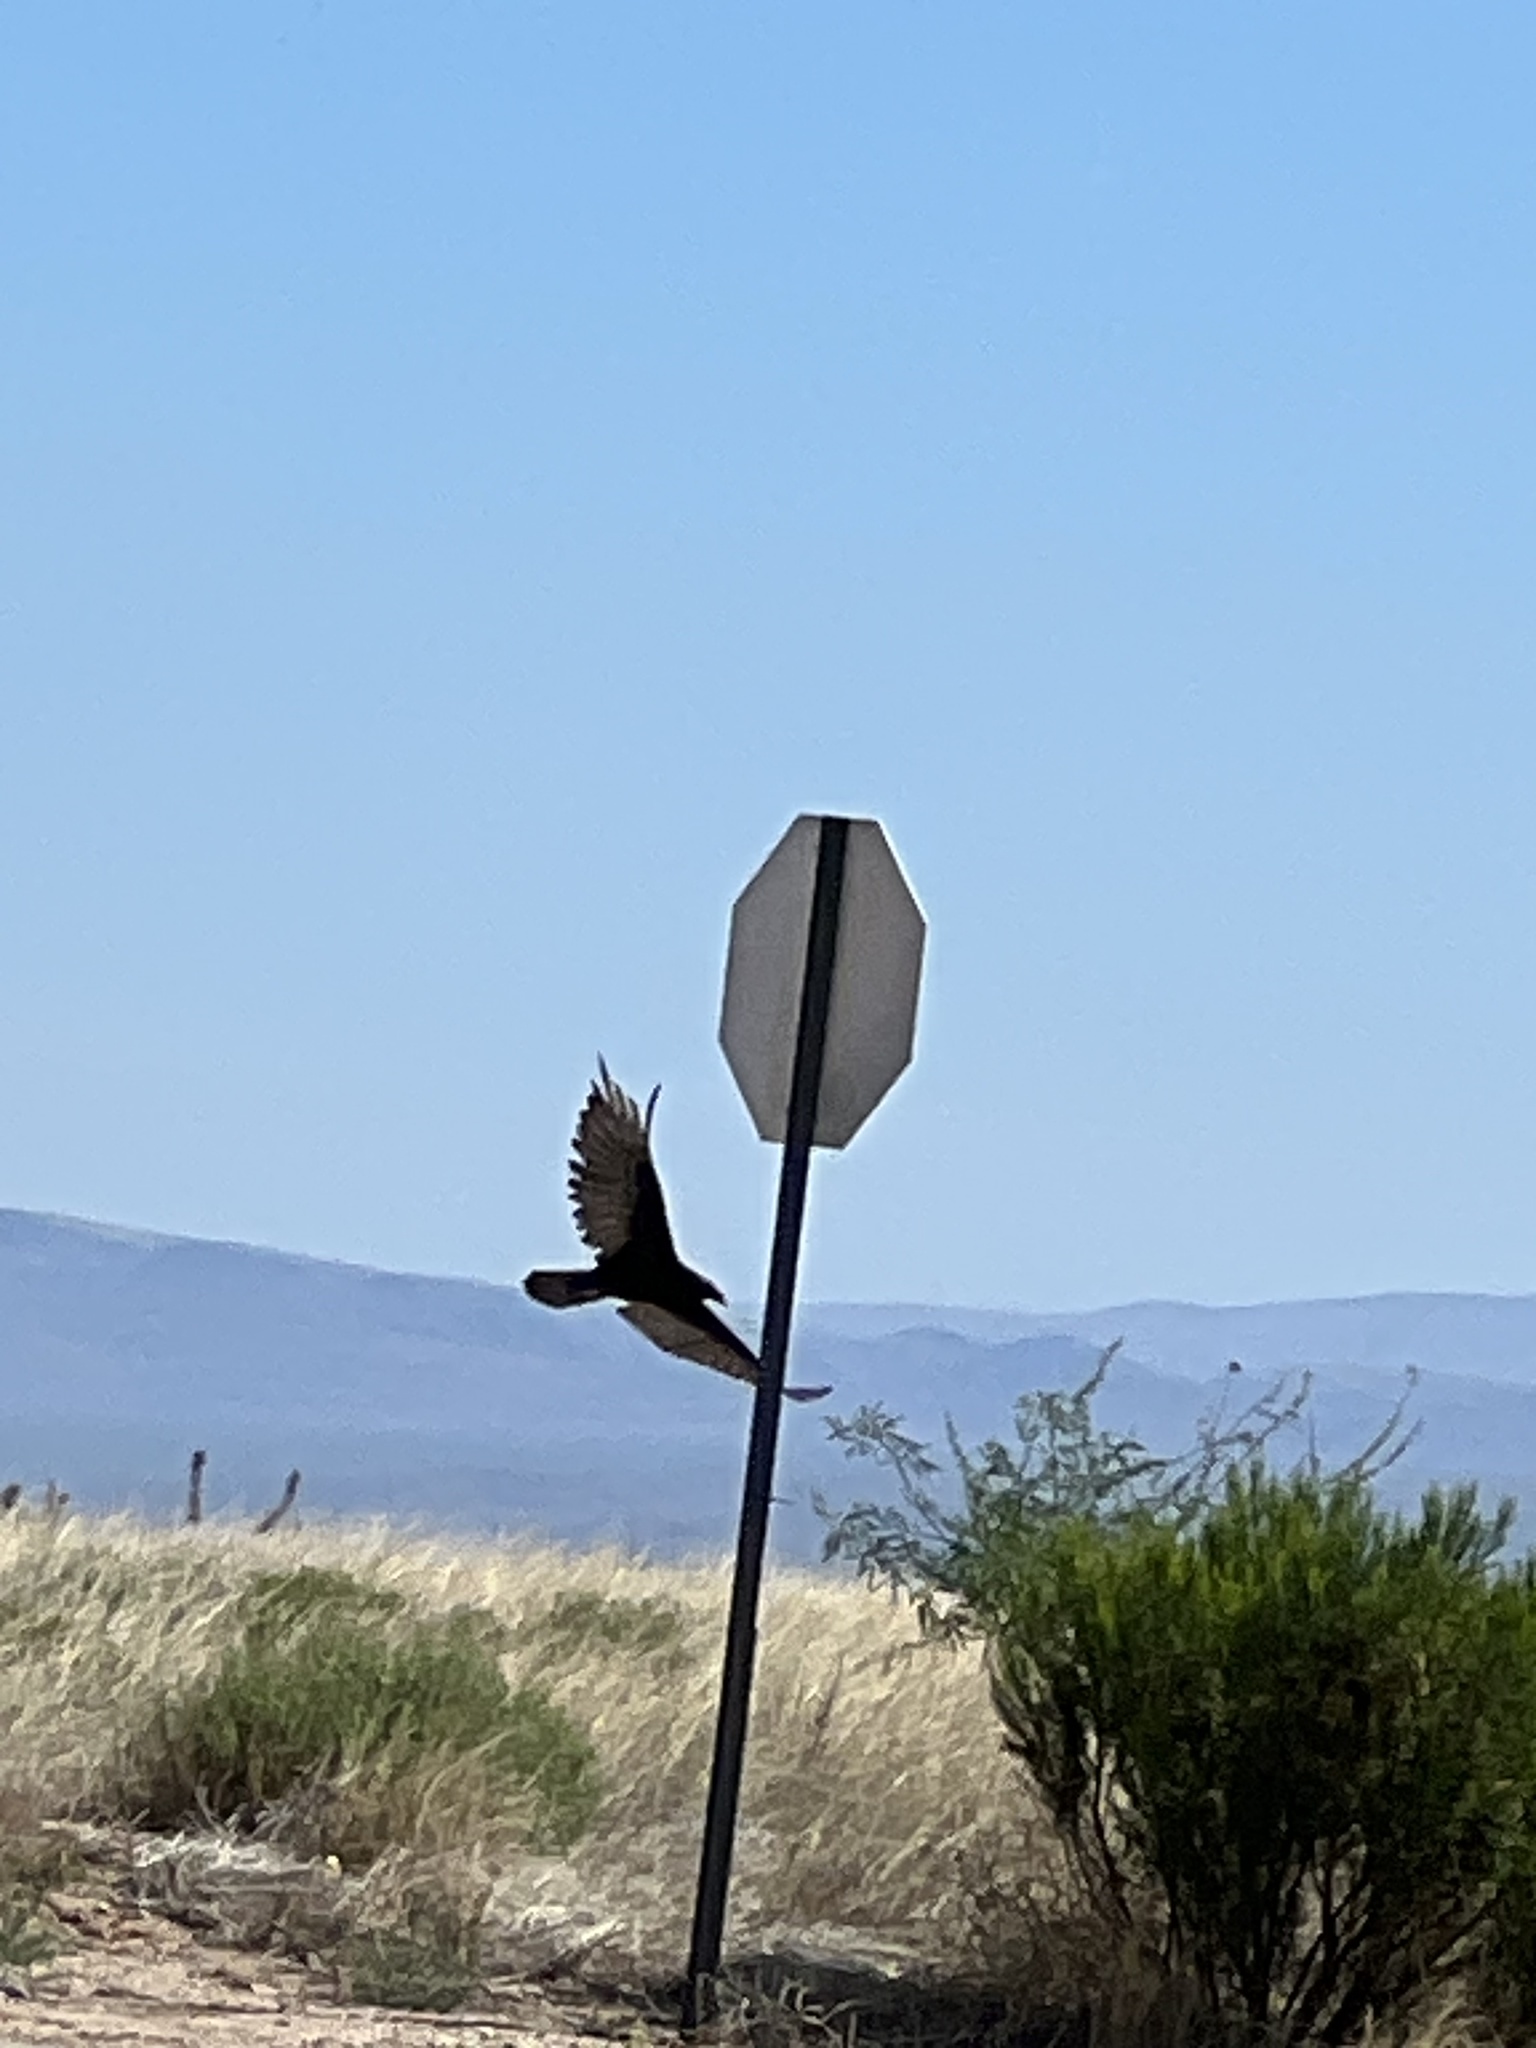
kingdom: Animalia
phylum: Chordata
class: Aves
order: Accipitriformes
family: Cathartidae
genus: Cathartes
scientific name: Cathartes aura
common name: Turkey vulture
